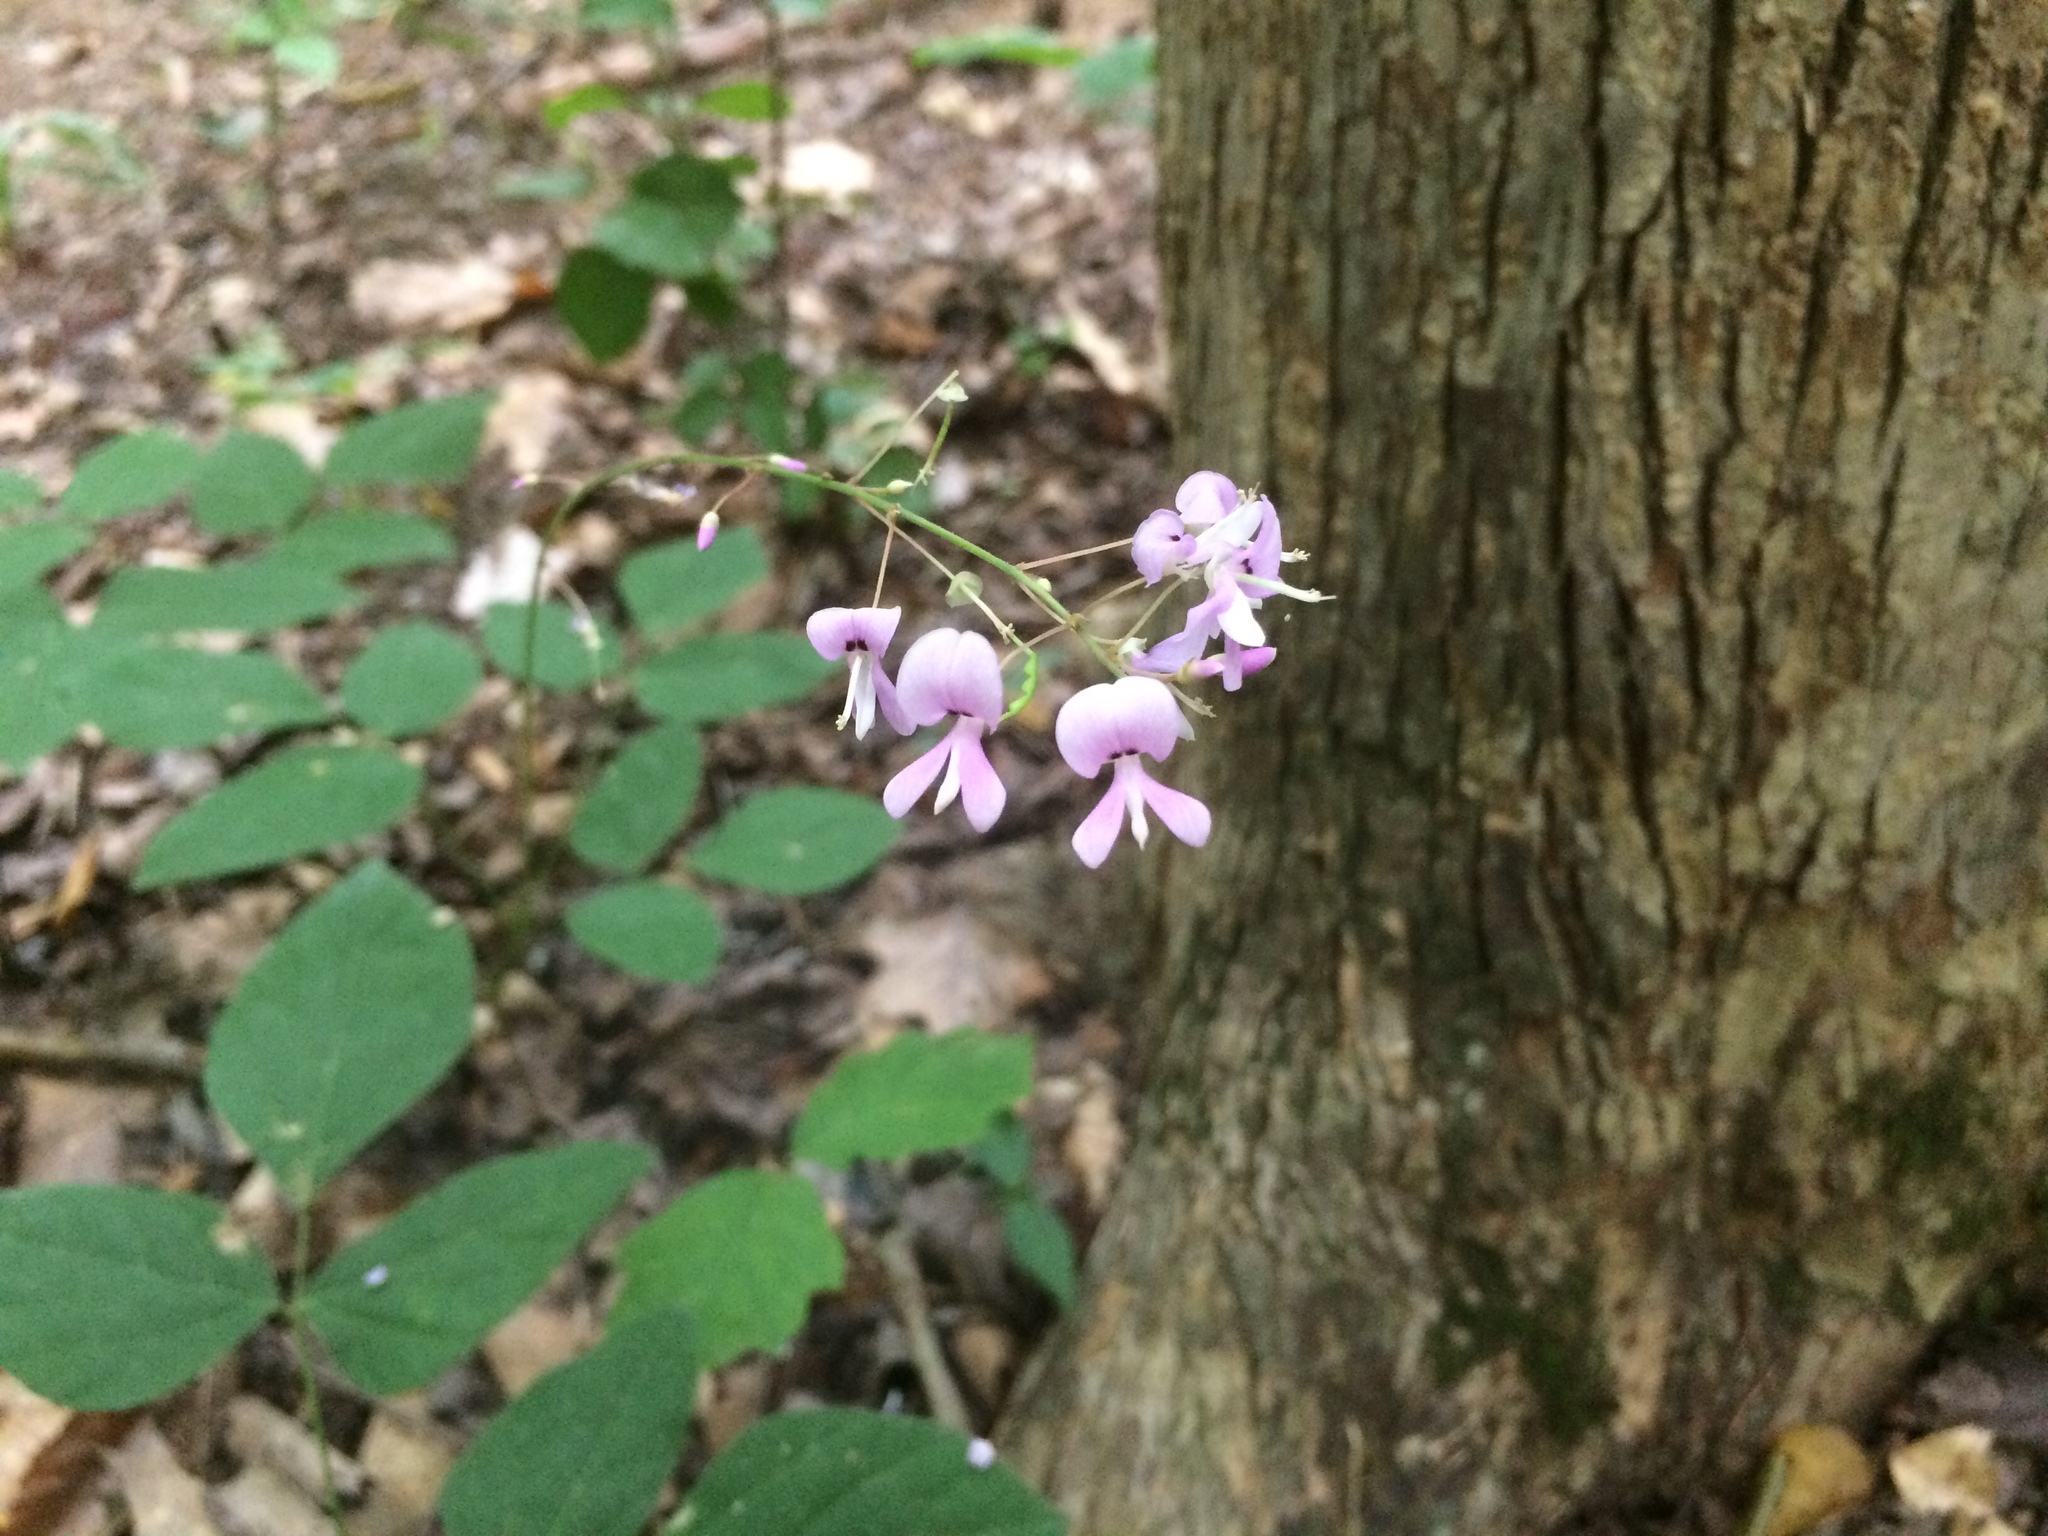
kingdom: Plantae
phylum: Tracheophyta
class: Magnoliopsida
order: Fabales
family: Fabaceae
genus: Hylodesmum
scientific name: Hylodesmum nudiflorum
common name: Bare-stemmed tick-trefoil
